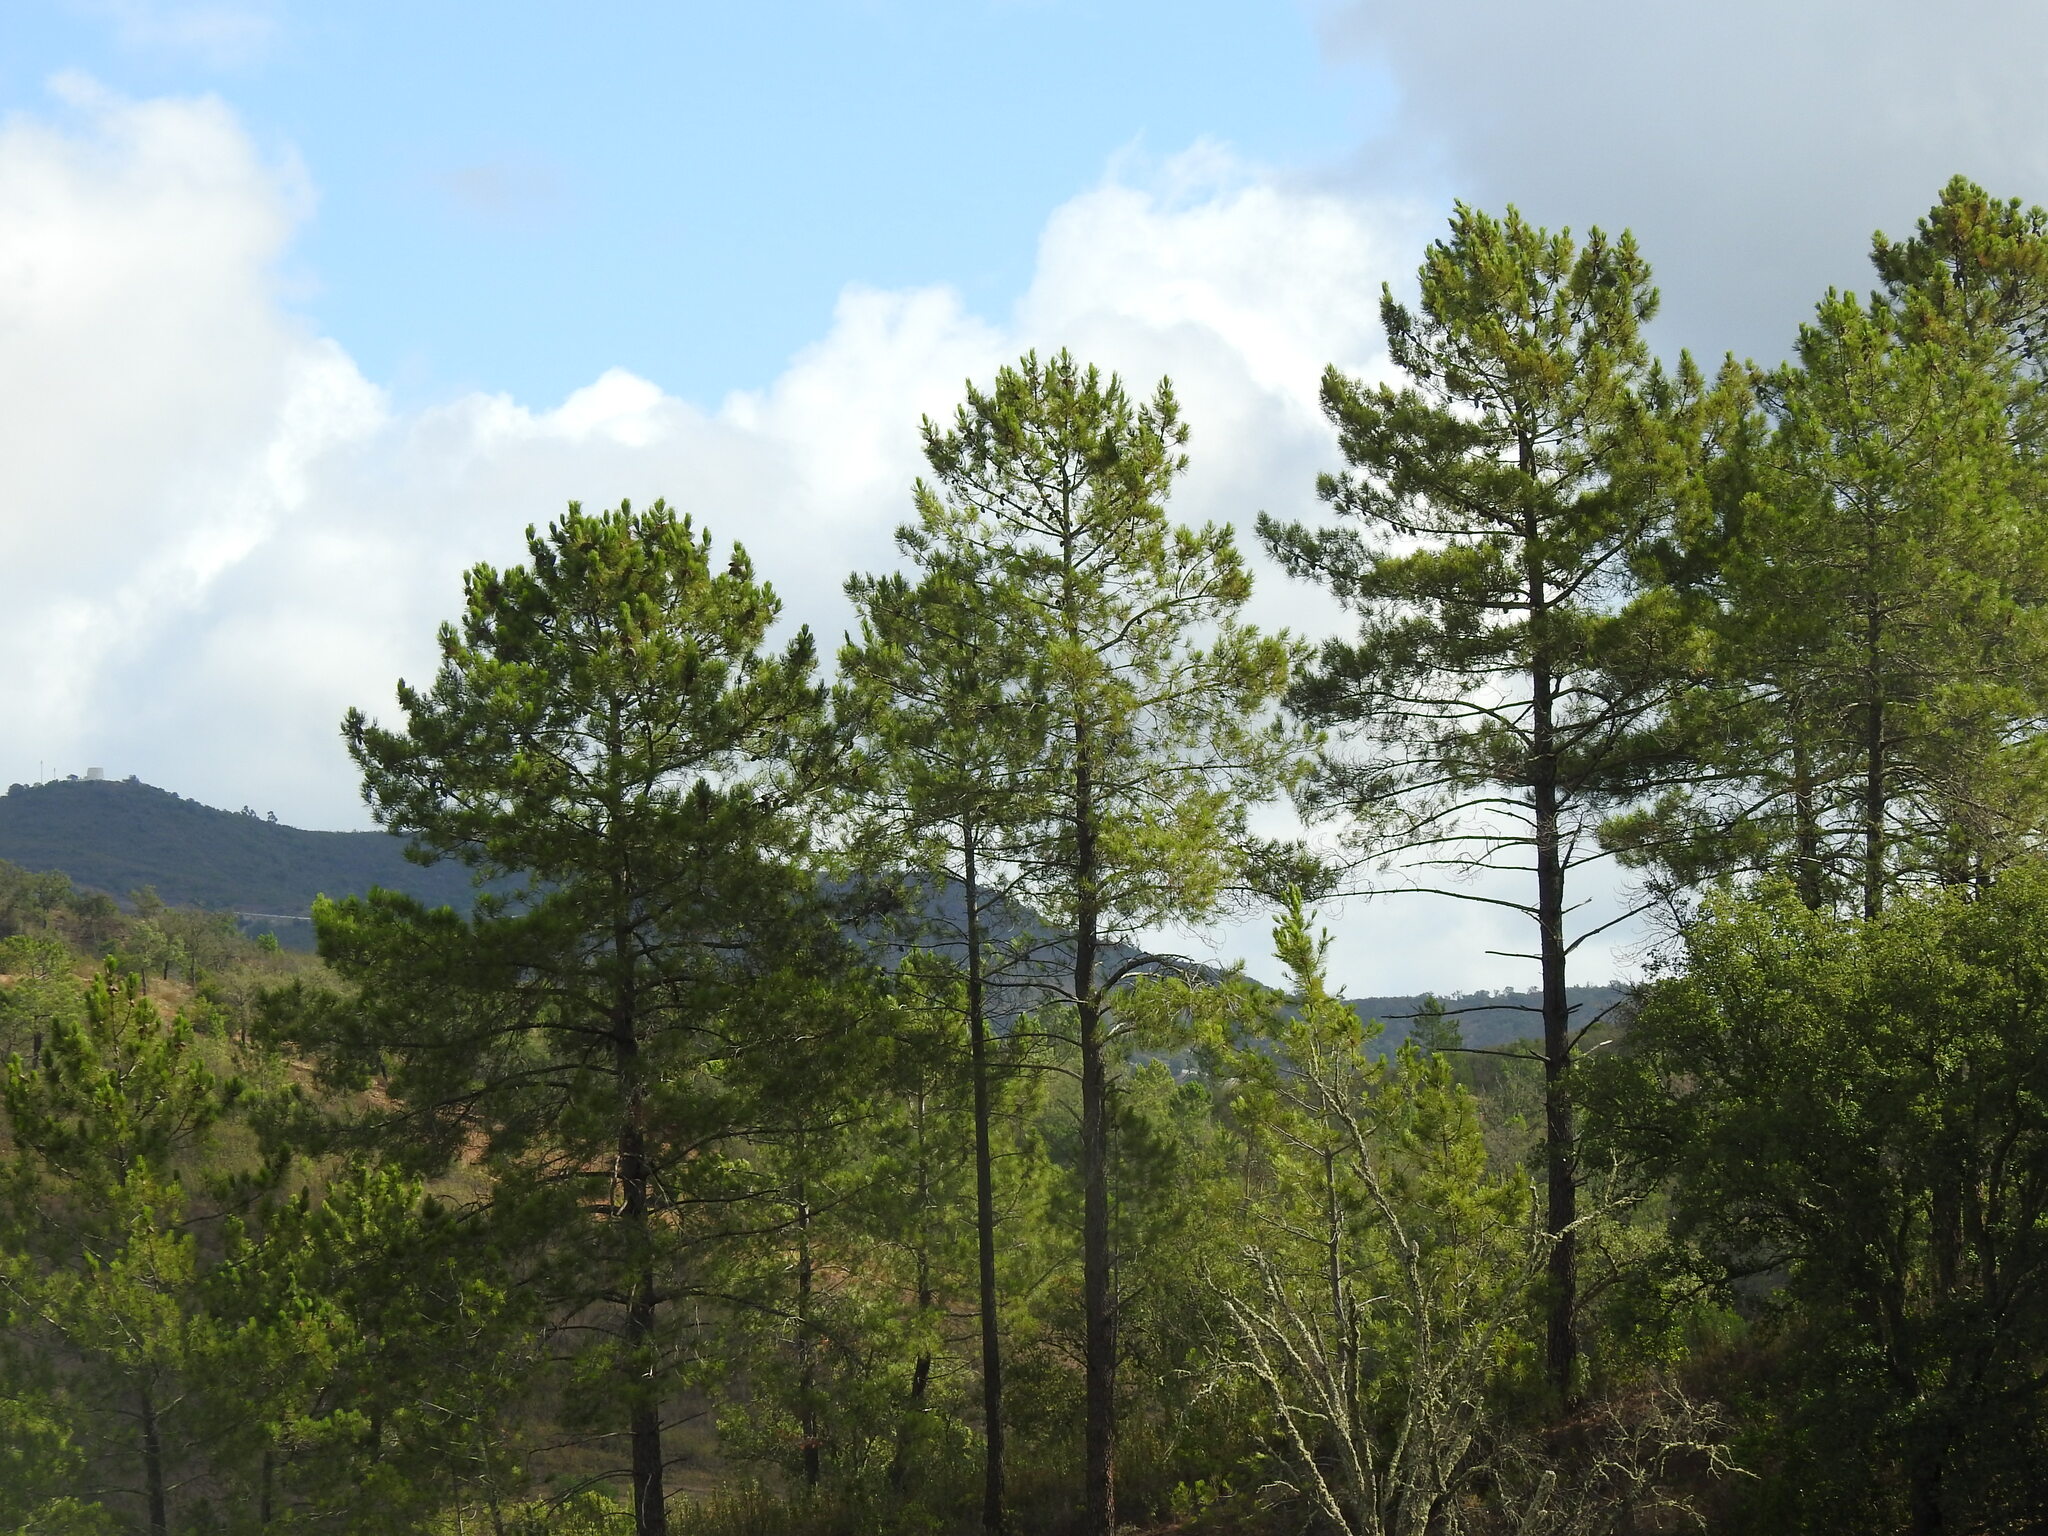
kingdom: Plantae
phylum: Tracheophyta
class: Pinopsida
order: Pinales
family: Pinaceae
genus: Pinus
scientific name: Pinus pinaster
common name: Maritime pine
